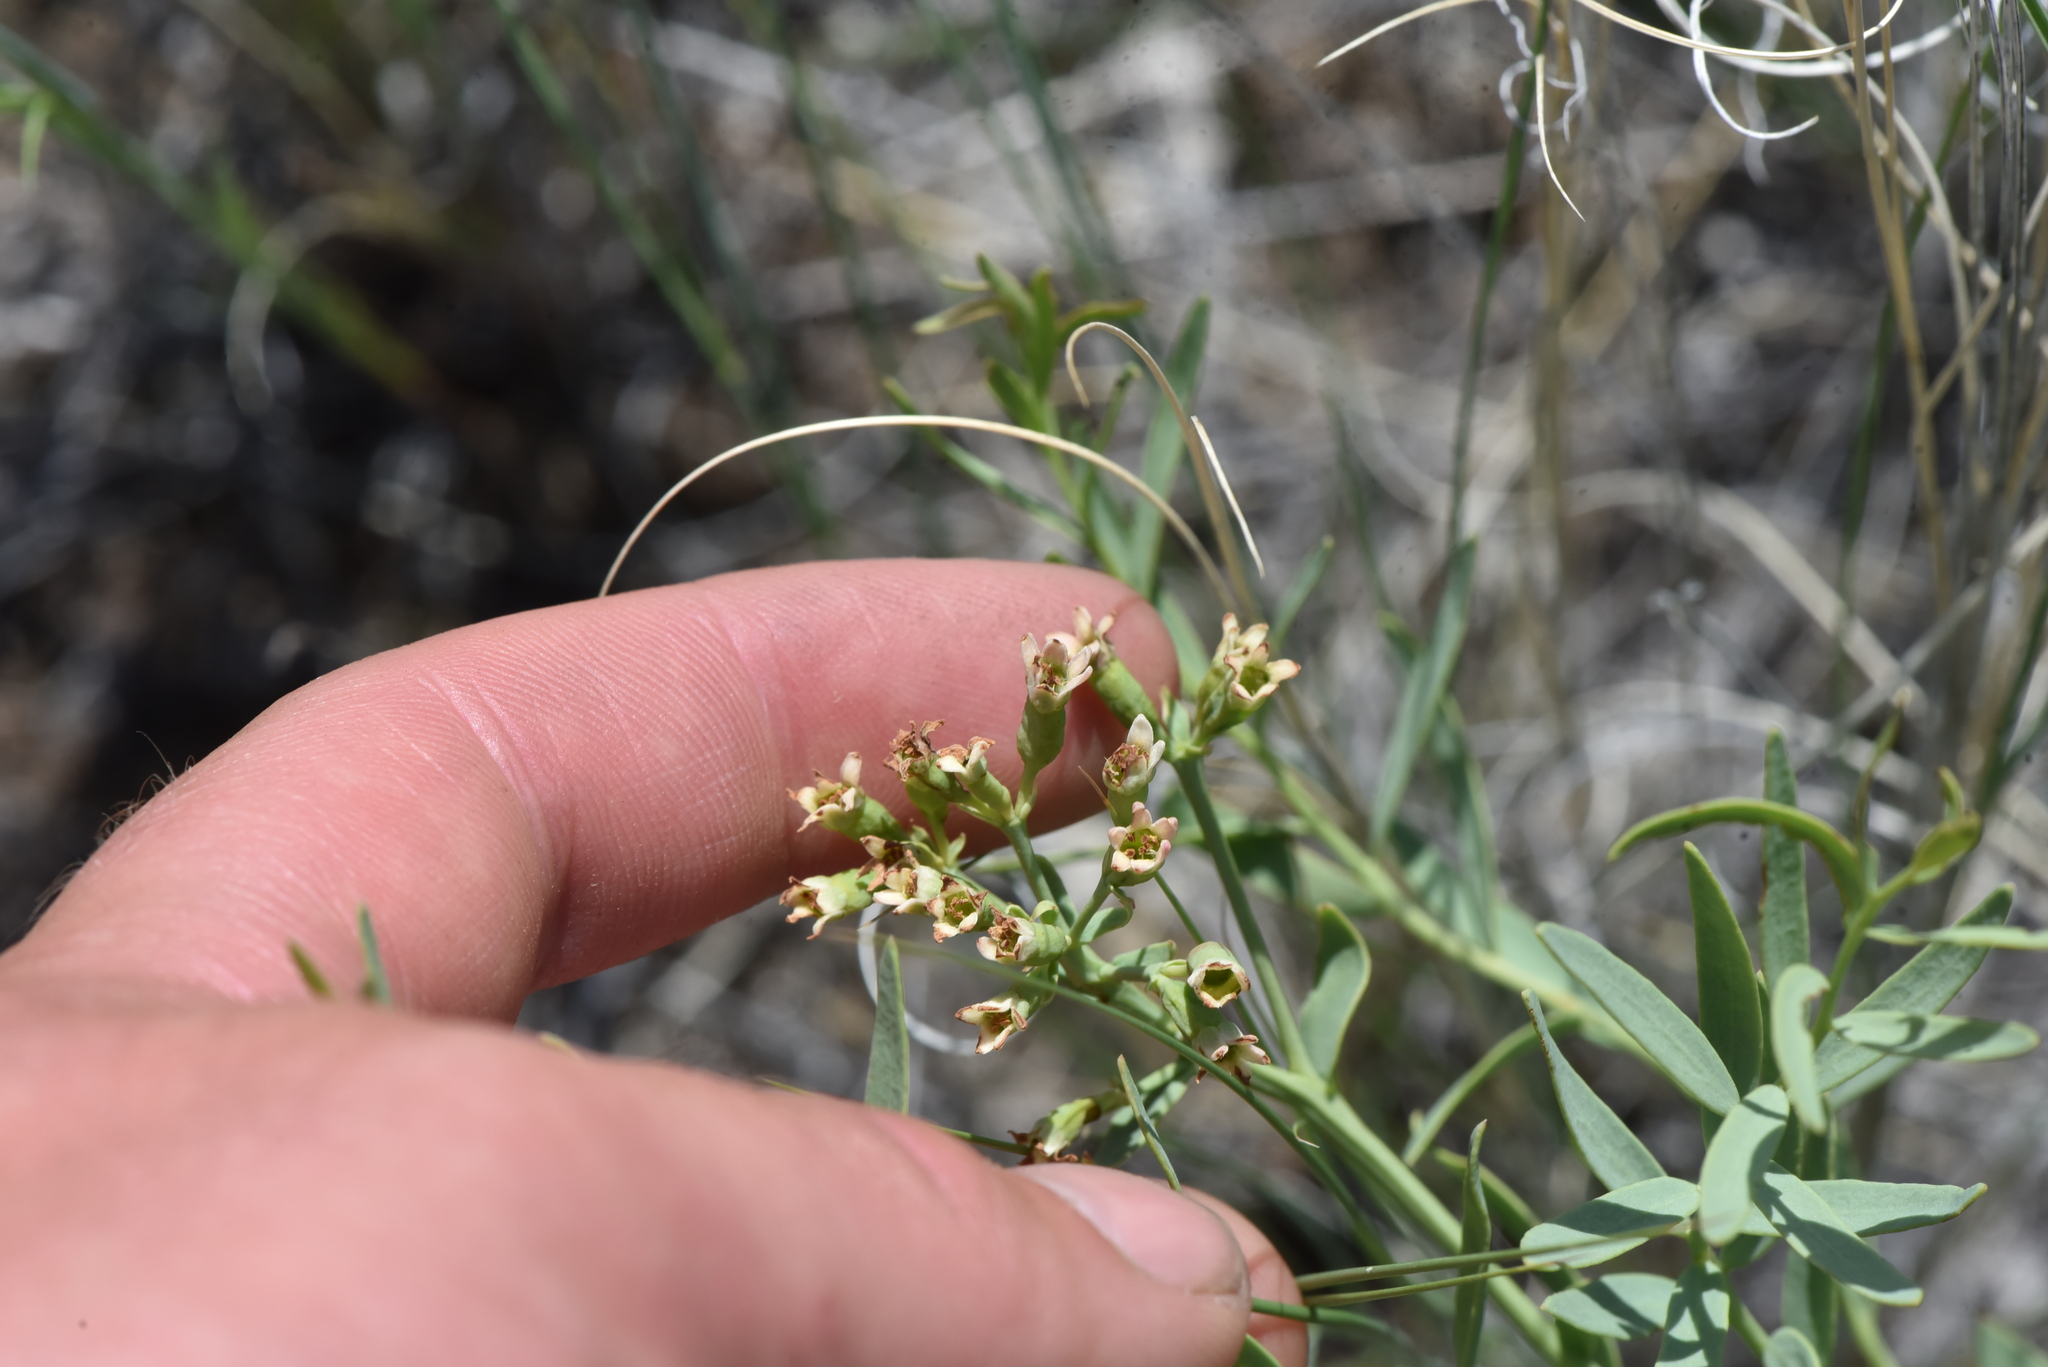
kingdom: Plantae
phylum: Tracheophyta
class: Magnoliopsida
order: Santalales
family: Comandraceae
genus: Comandra
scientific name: Comandra umbellata
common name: Bastard toadflax
